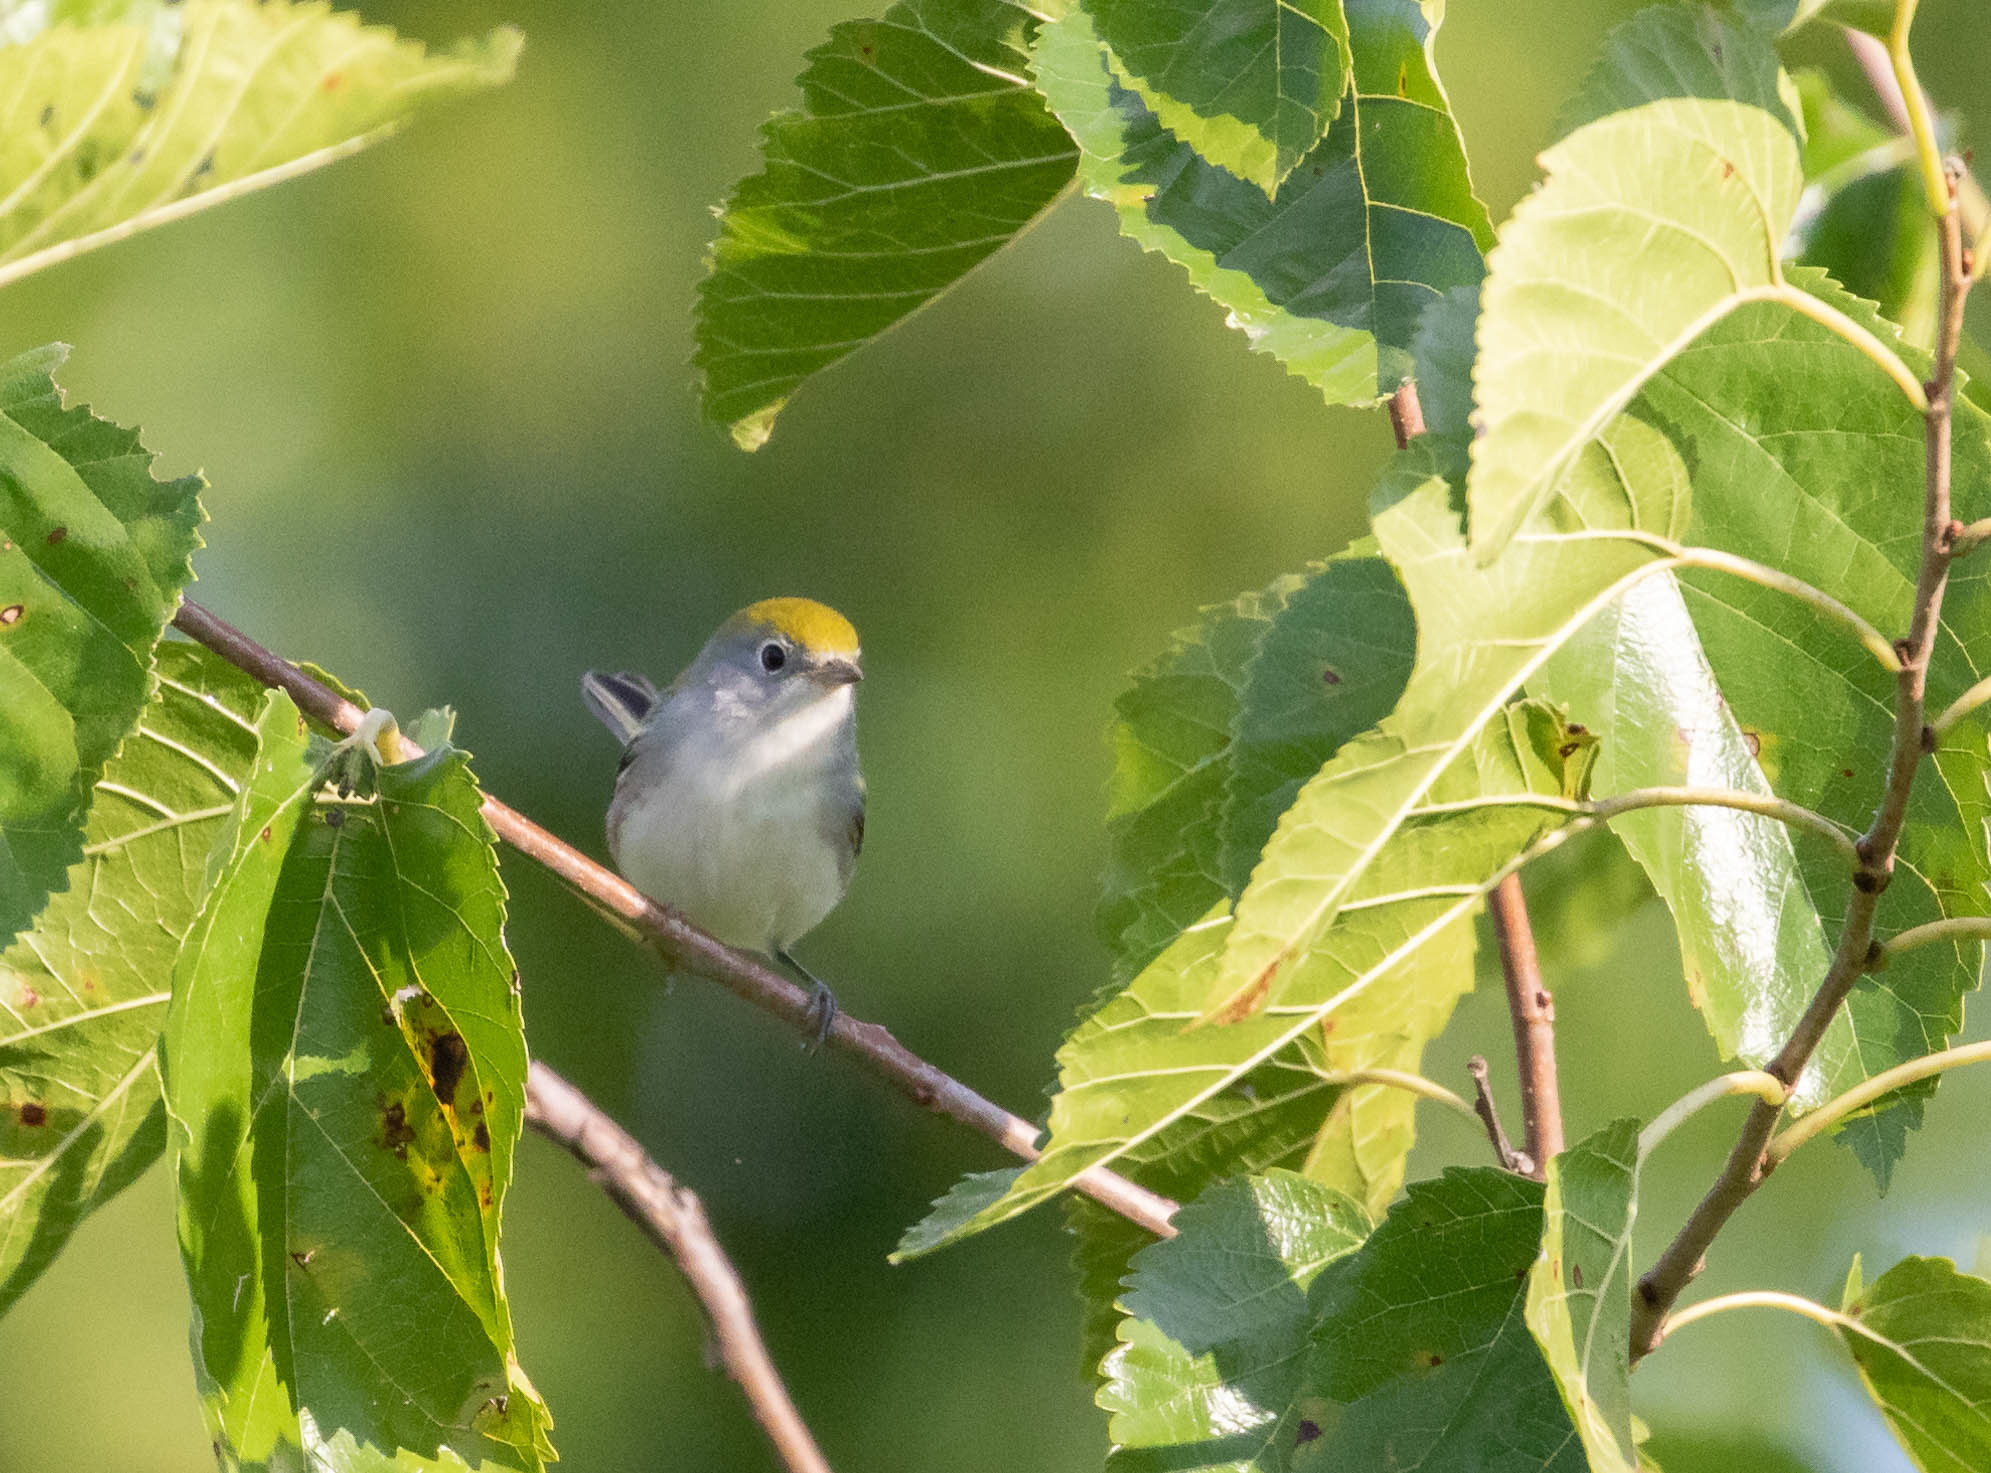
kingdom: Animalia
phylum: Chordata
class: Aves
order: Passeriformes
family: Parulidae
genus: Setophaga
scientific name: Setophaga pensylvanica
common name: Chestnut-sided warbler
